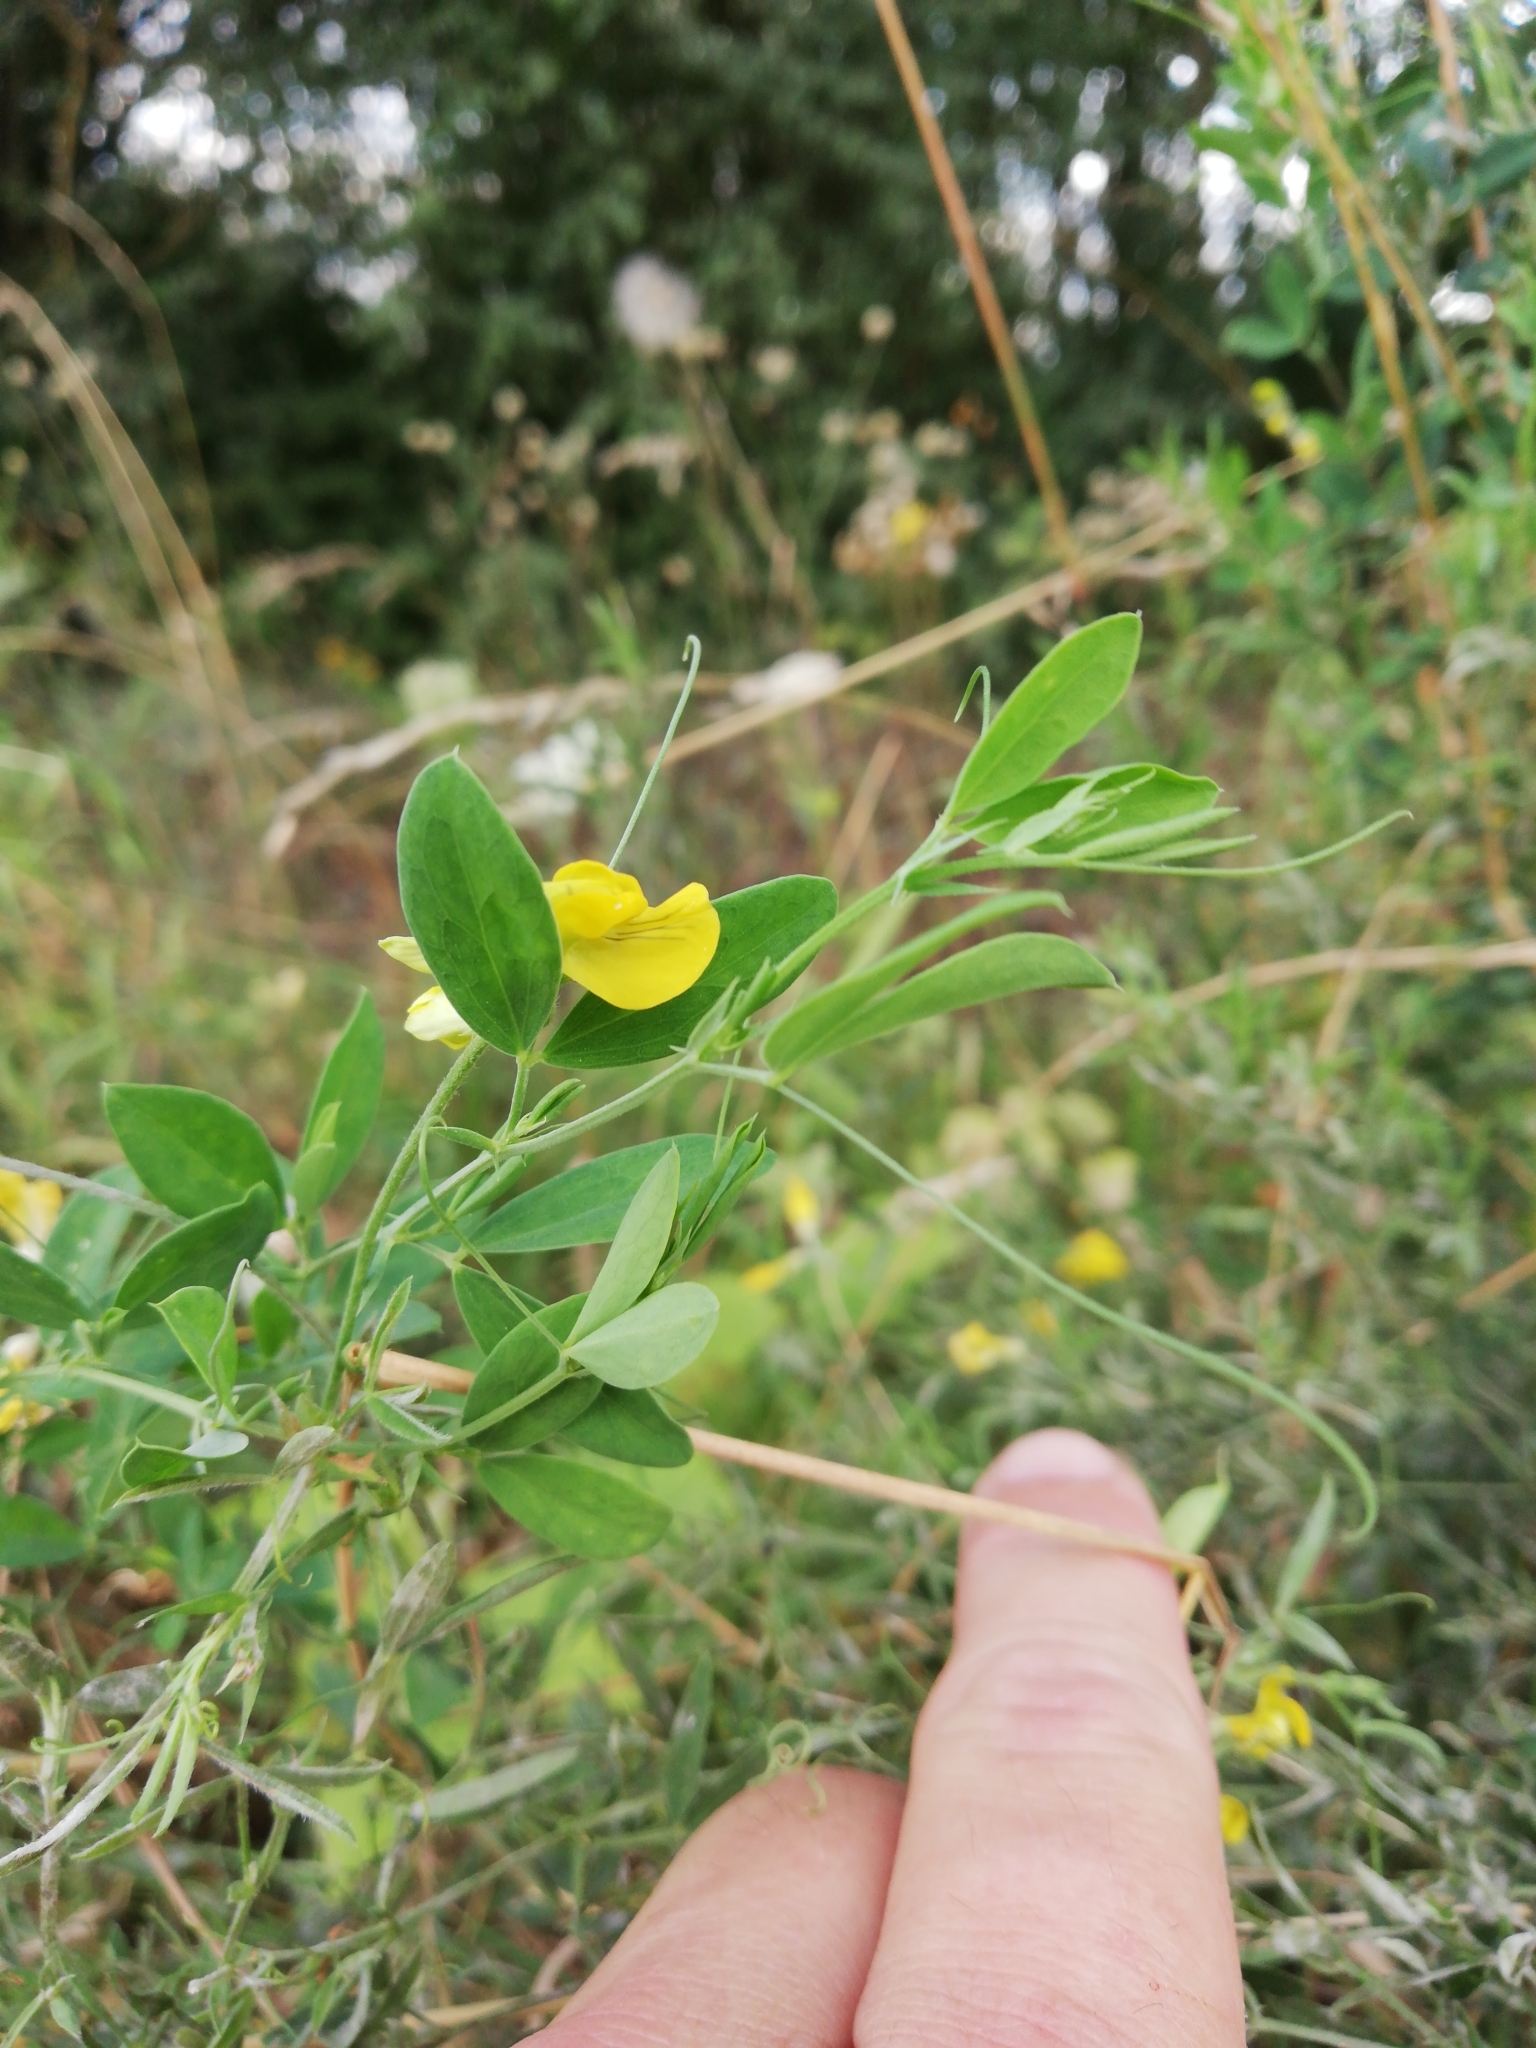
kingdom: Plantae
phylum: Tracheophyta
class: Magnoliopsida
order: Fabales
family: Fabaceae
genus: Lathyrus
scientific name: Lathyrus pratensis
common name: Meadow vetchling
